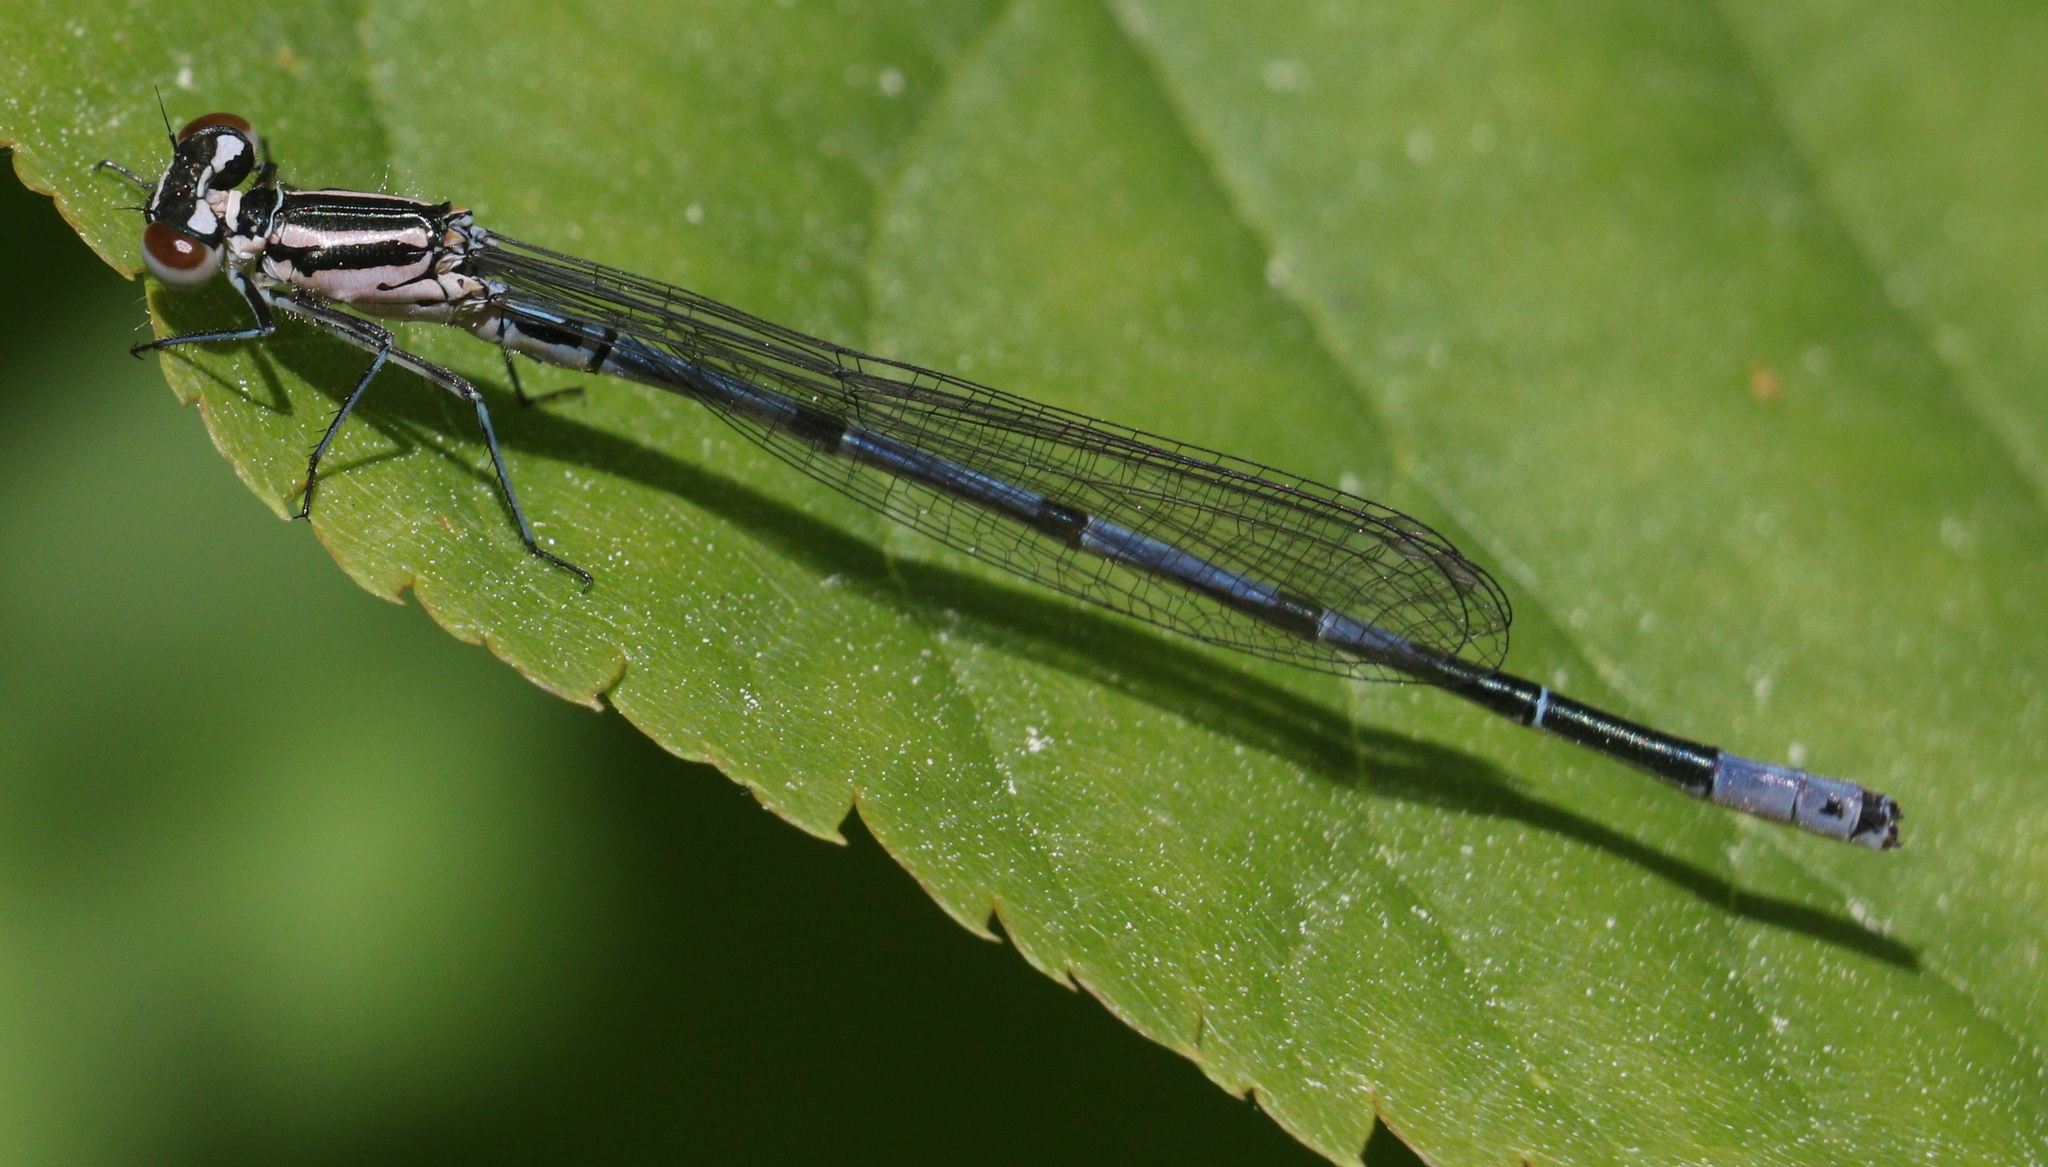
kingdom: Animalia
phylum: Arthropoda
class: Insecta
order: Odonata
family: Coenagrionidae
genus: Coenagrion
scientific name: Coenagrion puella
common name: Azure damselfly
